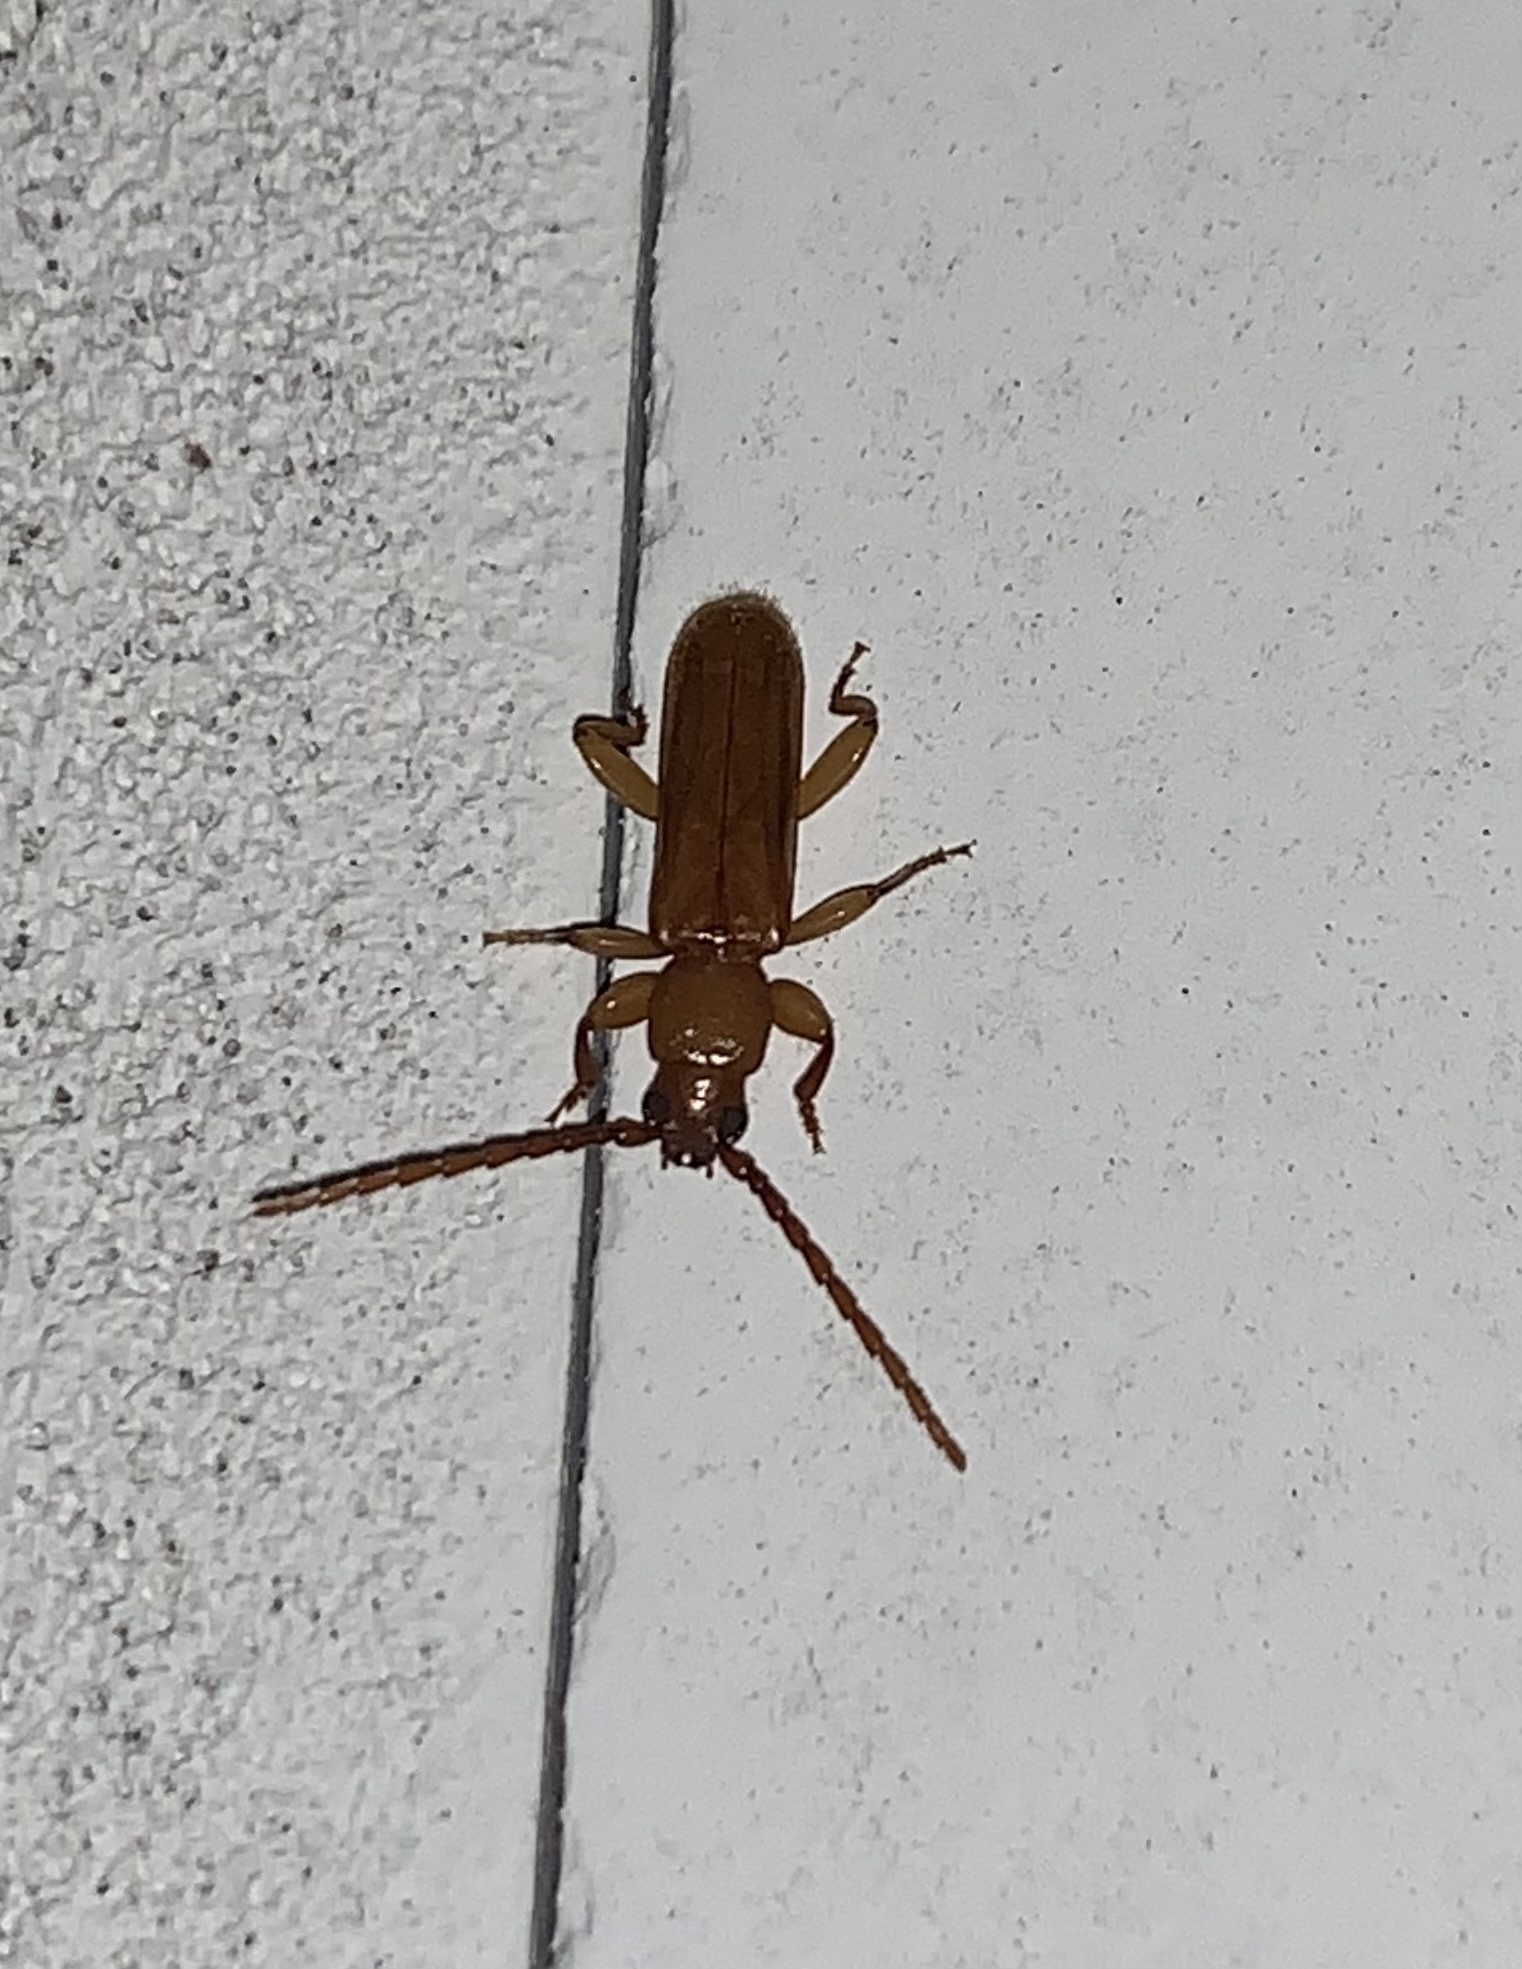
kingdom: Animalia
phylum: Arthropoda
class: Insecta
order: Coleoptera
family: Cerambycidae
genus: Smodicum
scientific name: Smodicum cucujiforme
